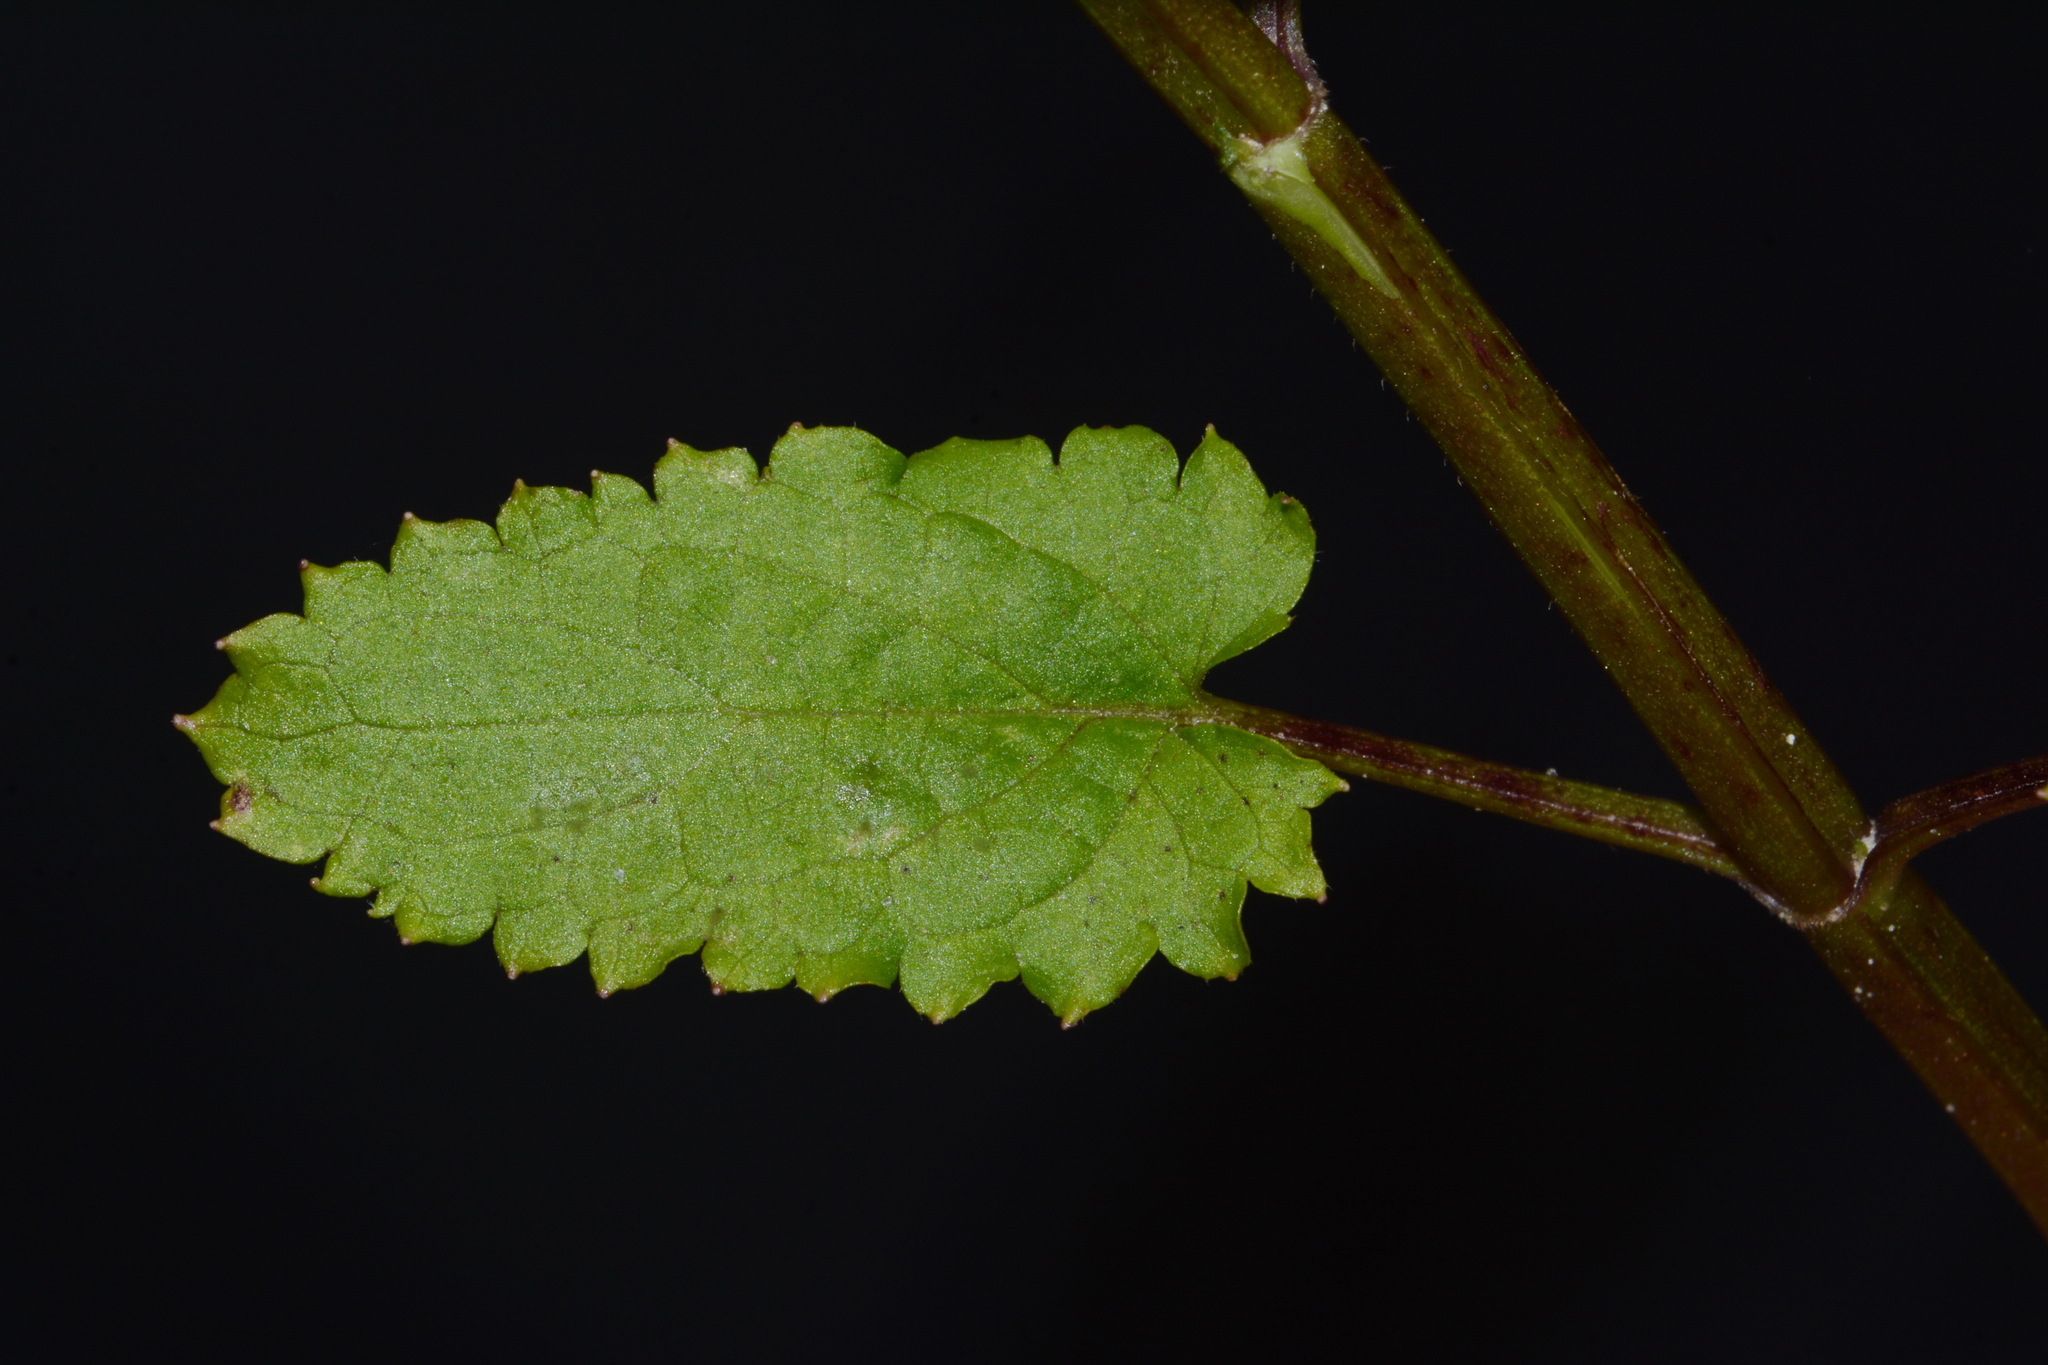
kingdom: Plantae
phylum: Tracheophyta
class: Magnoliopsida
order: Lamiales
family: Lamiaceae
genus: Stachys
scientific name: Stachys floridana
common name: Florida betony
